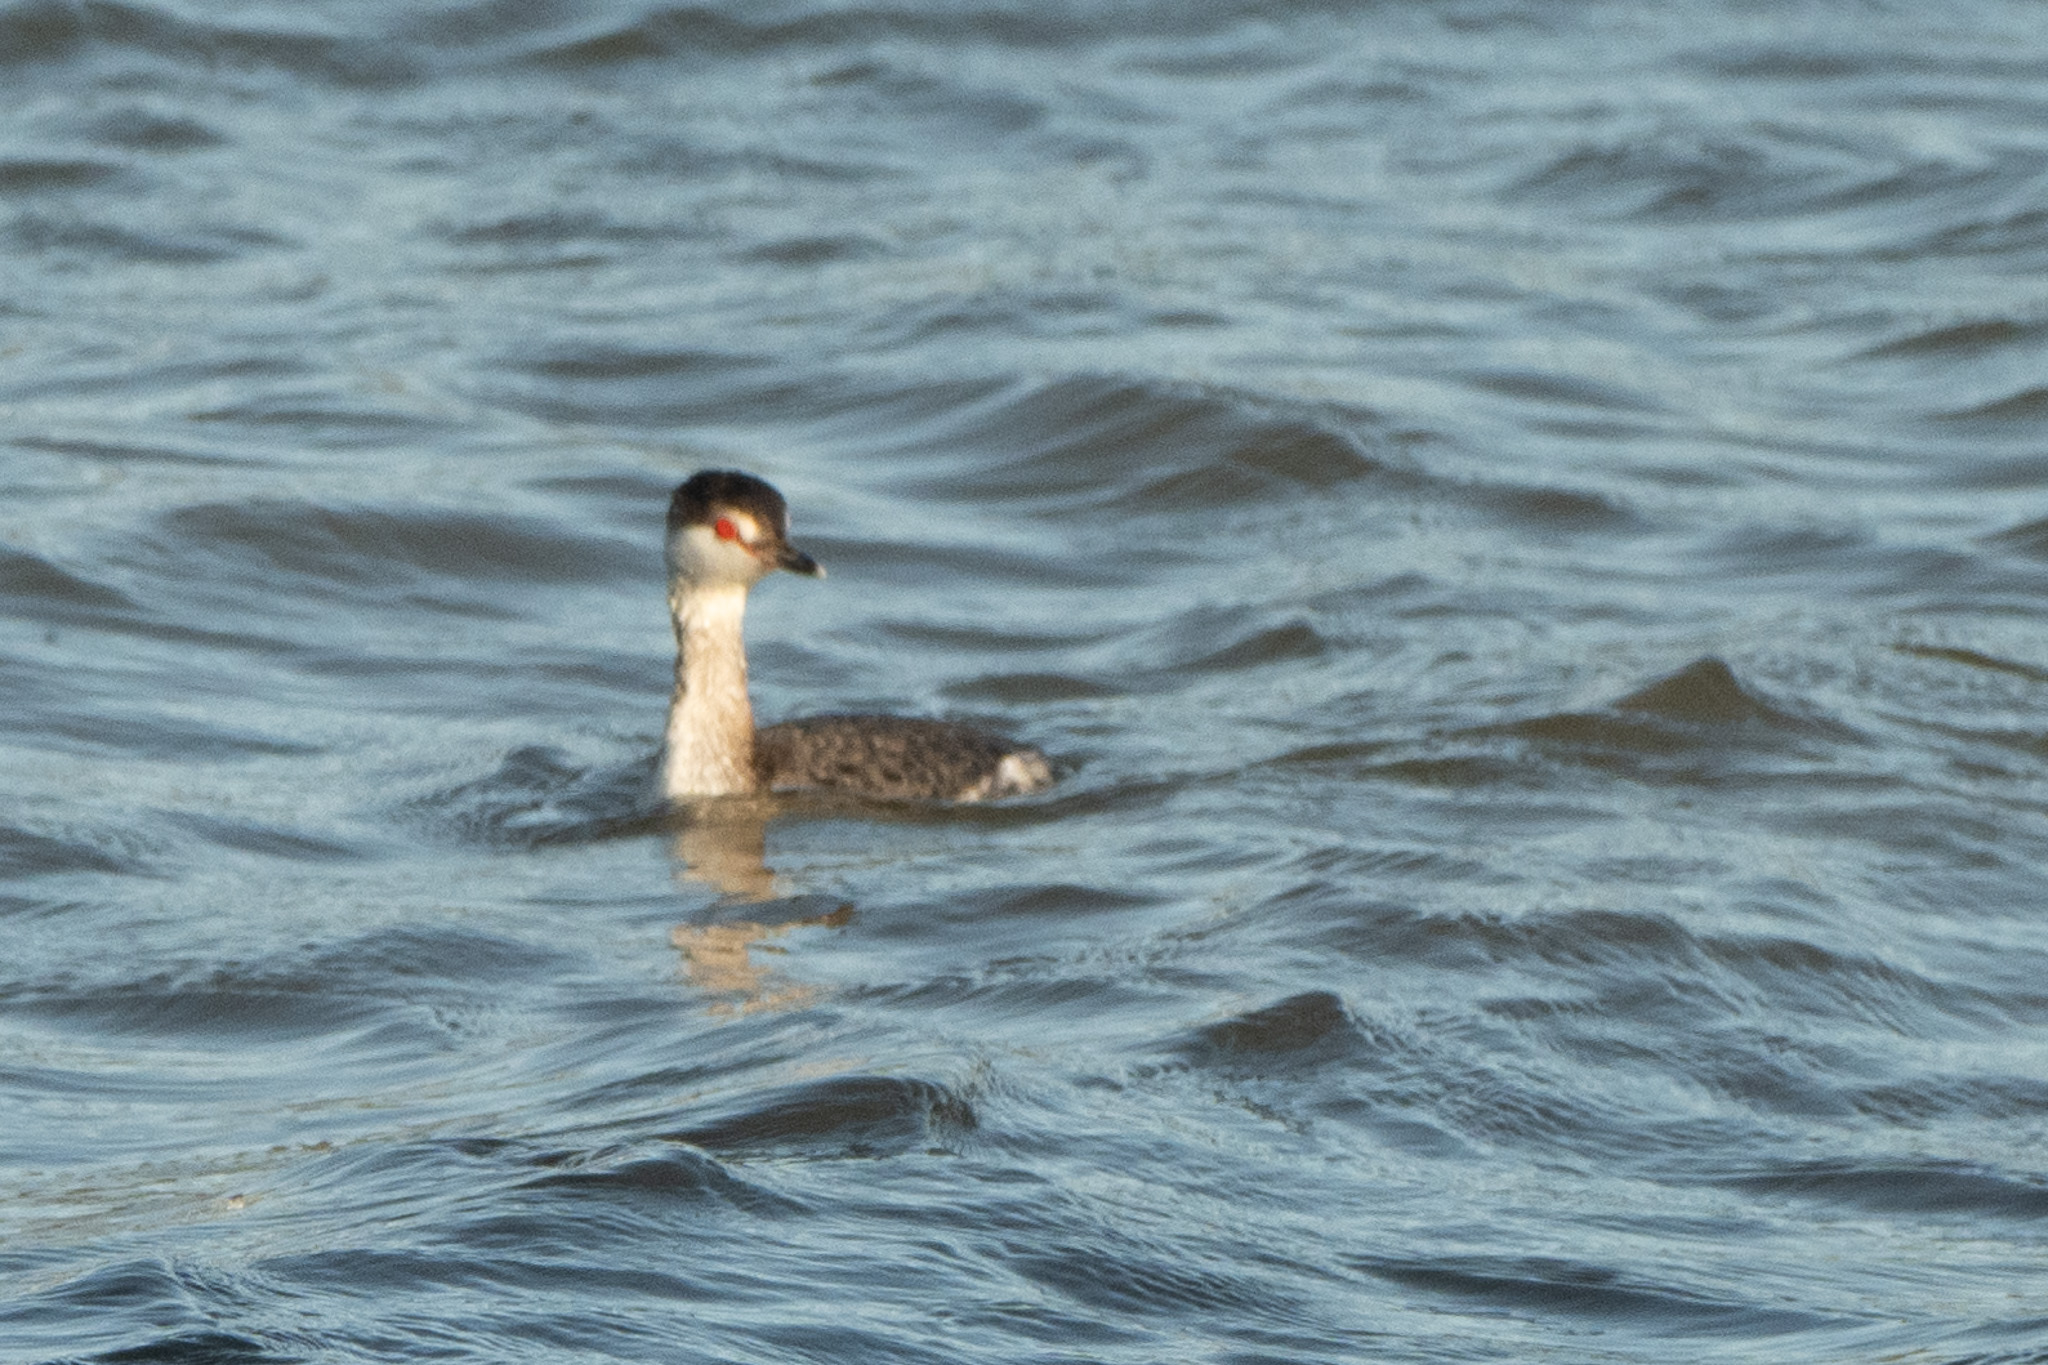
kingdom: Animalia
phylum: Chordata
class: Aves
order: Podicipediformes
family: Podicipedidae
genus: Aechmophorus
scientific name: Aechmophorus clarkii
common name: Clark's grebe
